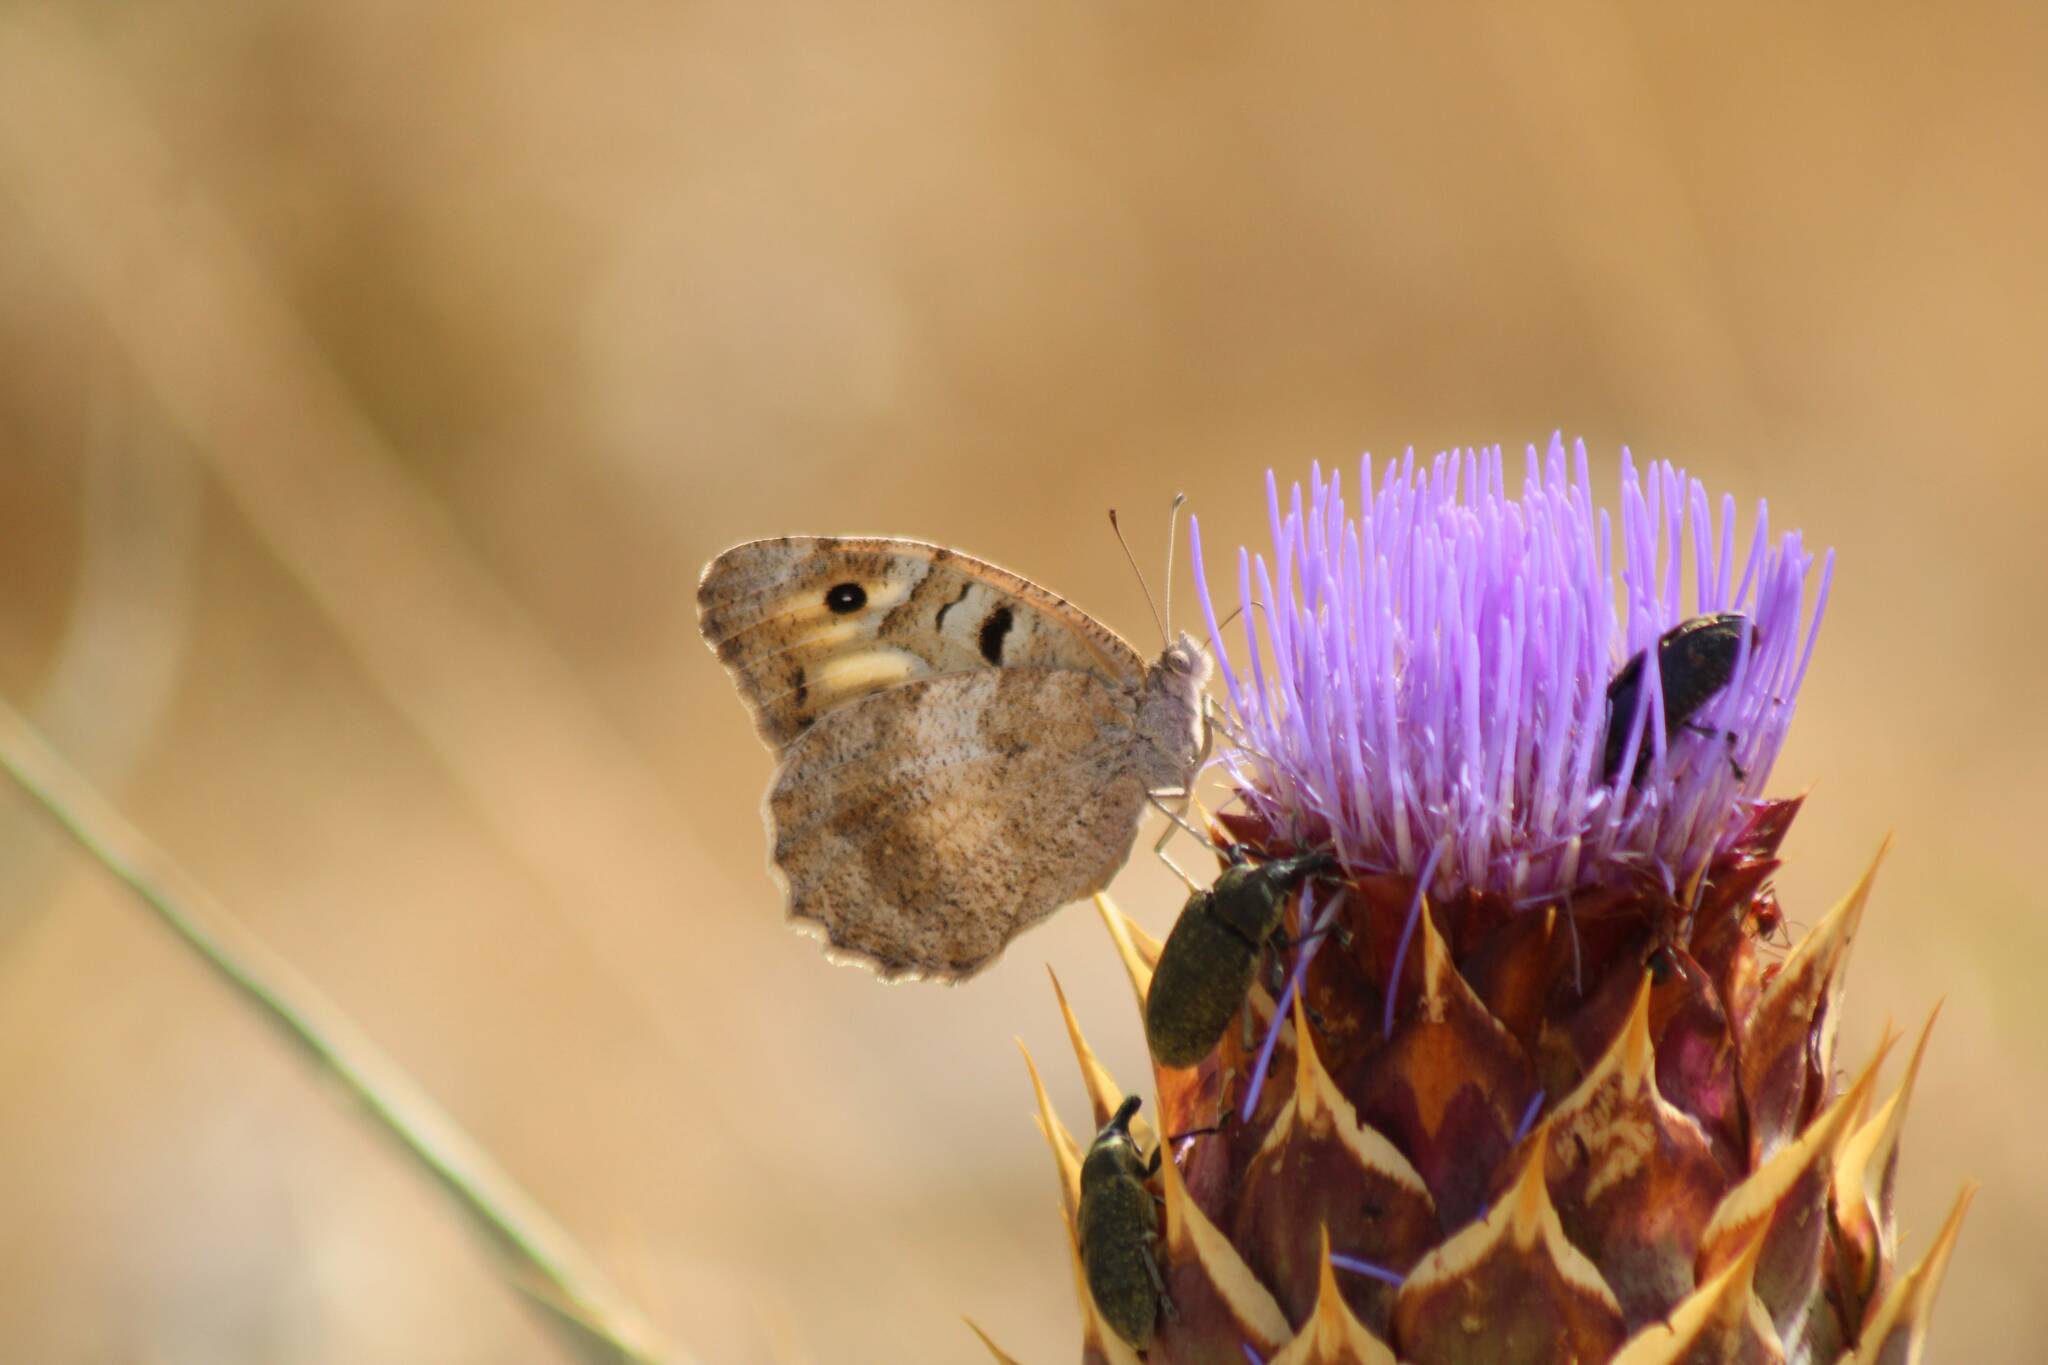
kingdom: Animalia
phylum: Arthropoda
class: Insecta
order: Lepidoptera
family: Nymphalidae
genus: Satyrus
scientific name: Satyrus briseis
